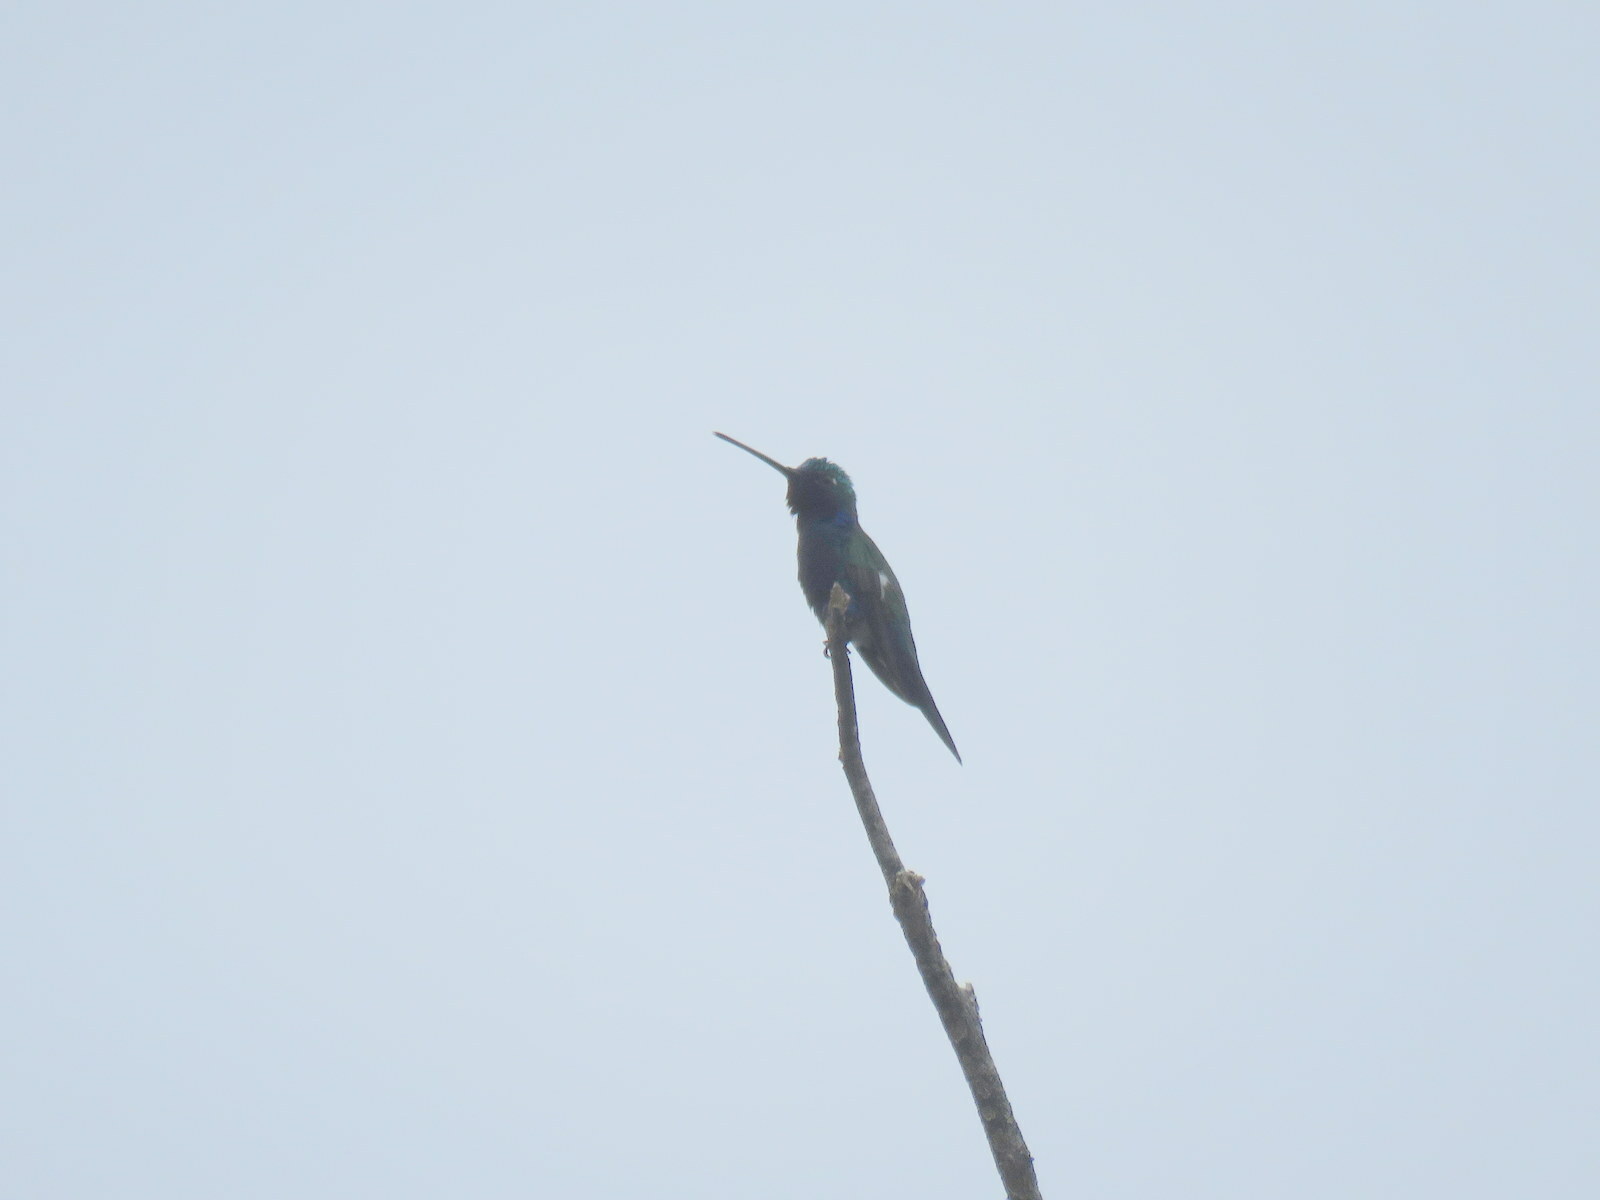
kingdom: Animalia
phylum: Chordata
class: Aves
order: Apodiformes
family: Trochilidae
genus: Heliomaster
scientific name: Heliomaster furcifer
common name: Blue-tufted starthroat
